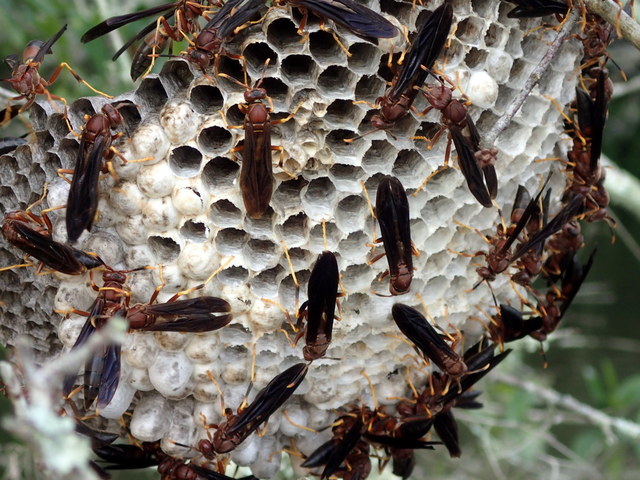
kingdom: Animalia
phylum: Arthropoda
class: Insecta
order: Hymenoptera
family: Eumenidae
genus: Polistes
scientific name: Polistes annularis
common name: Ringed paper wasp
